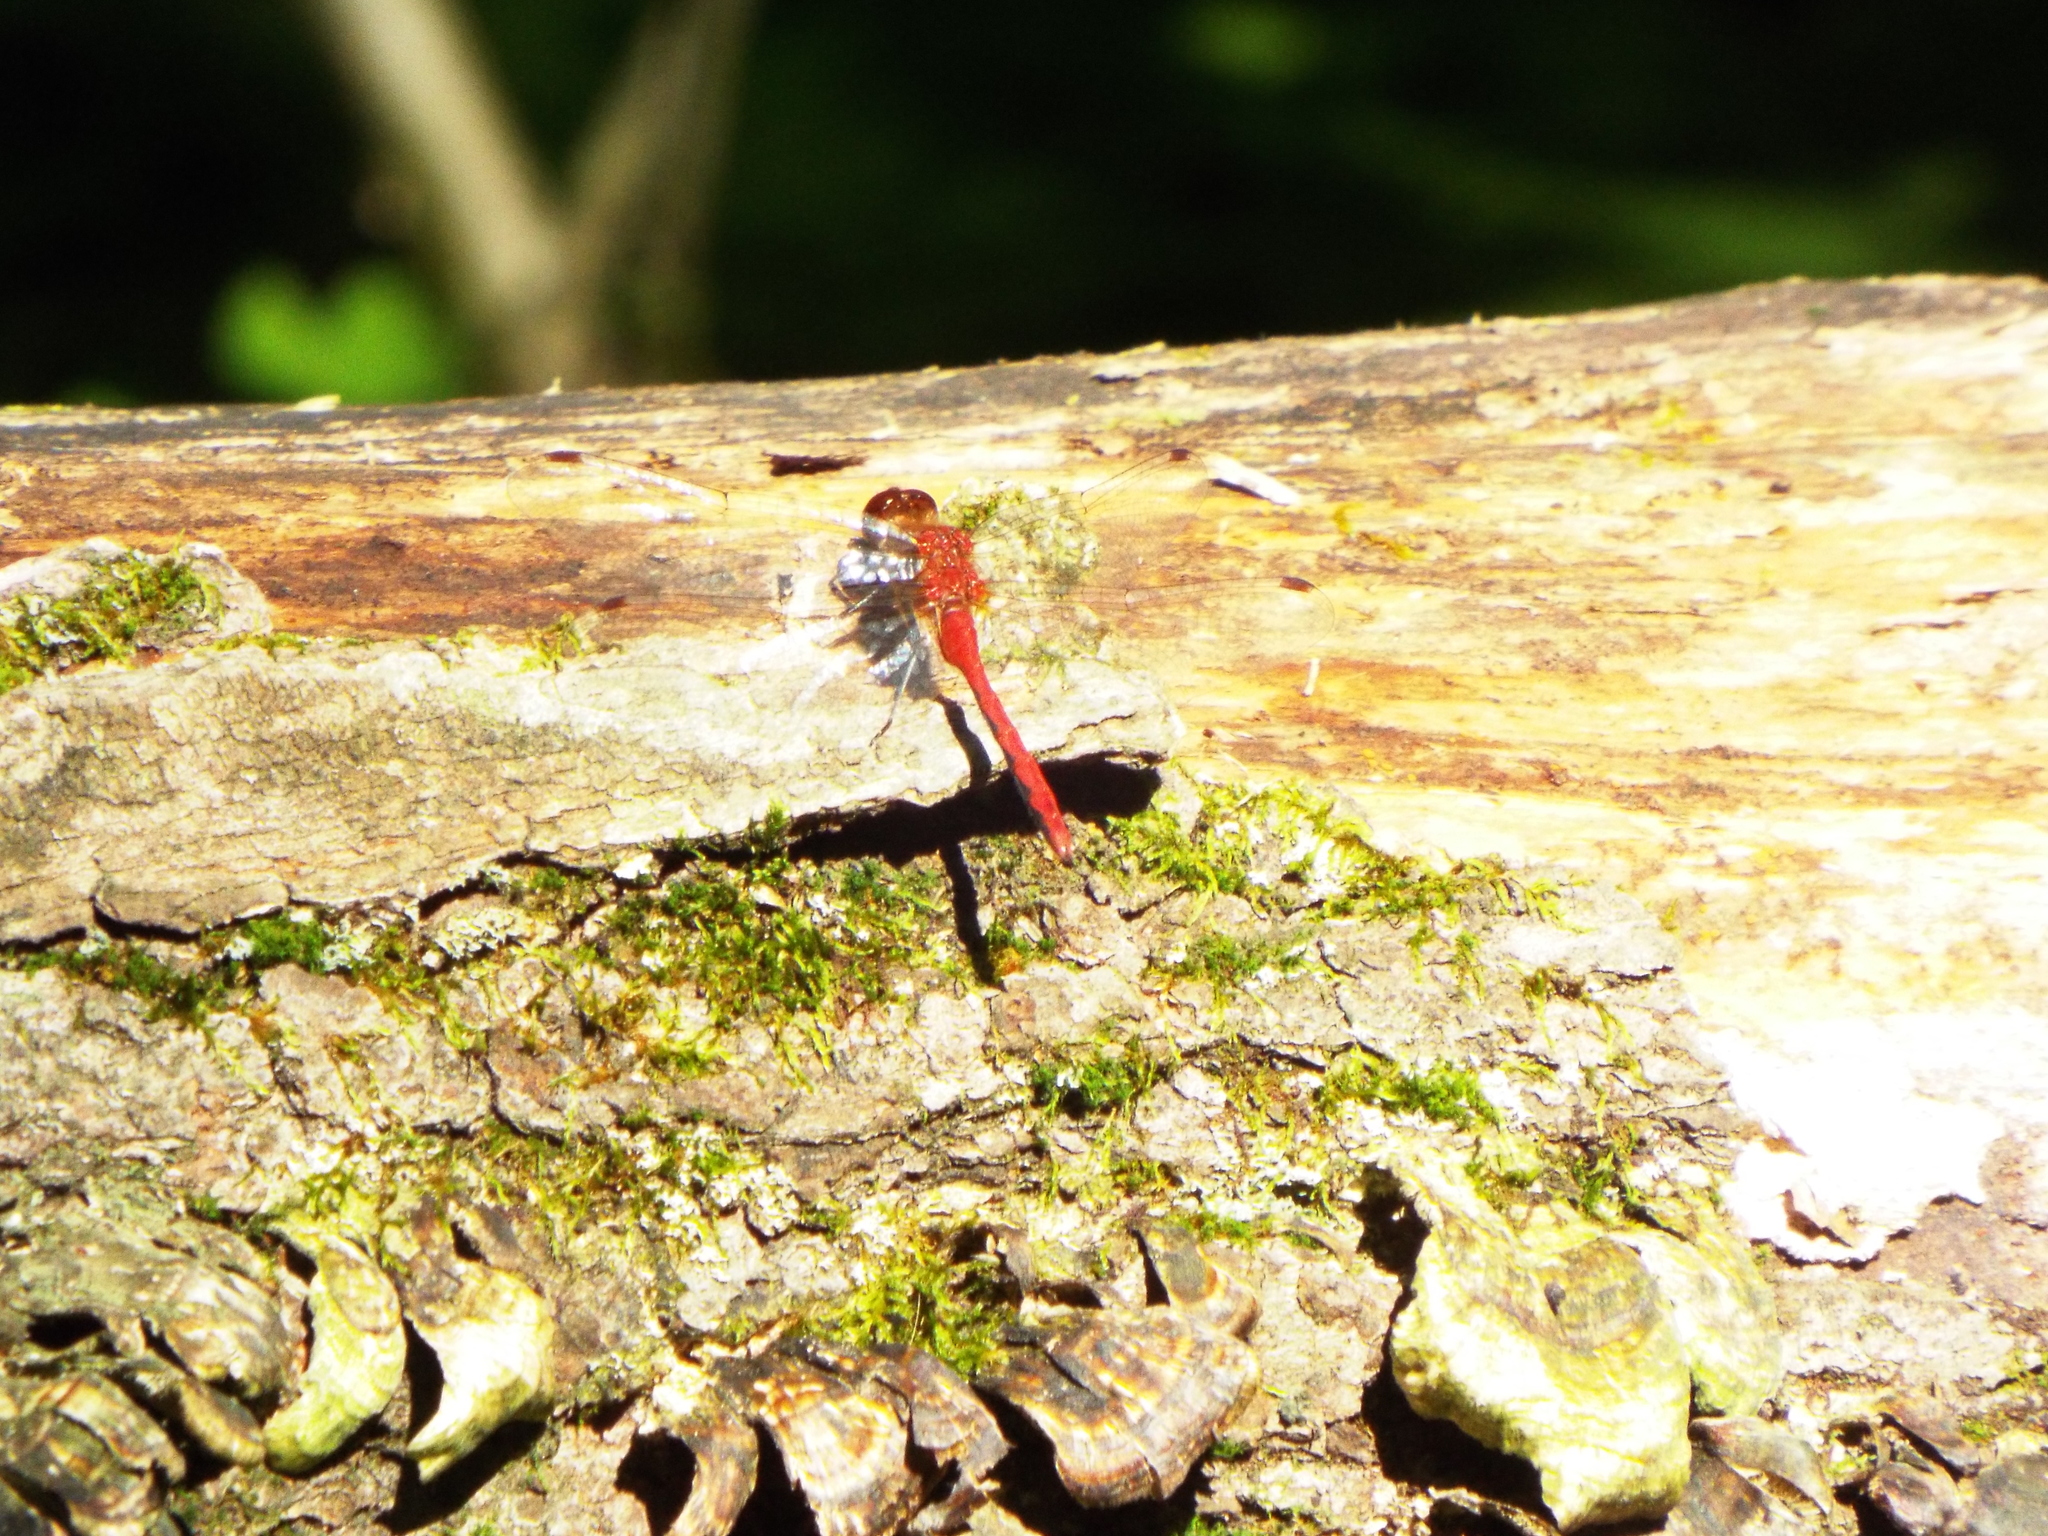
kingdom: Animalia
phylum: Arthropoda
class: Insecta
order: Odonata
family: Libellulidae
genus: Sympetrum
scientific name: Sympetrum
